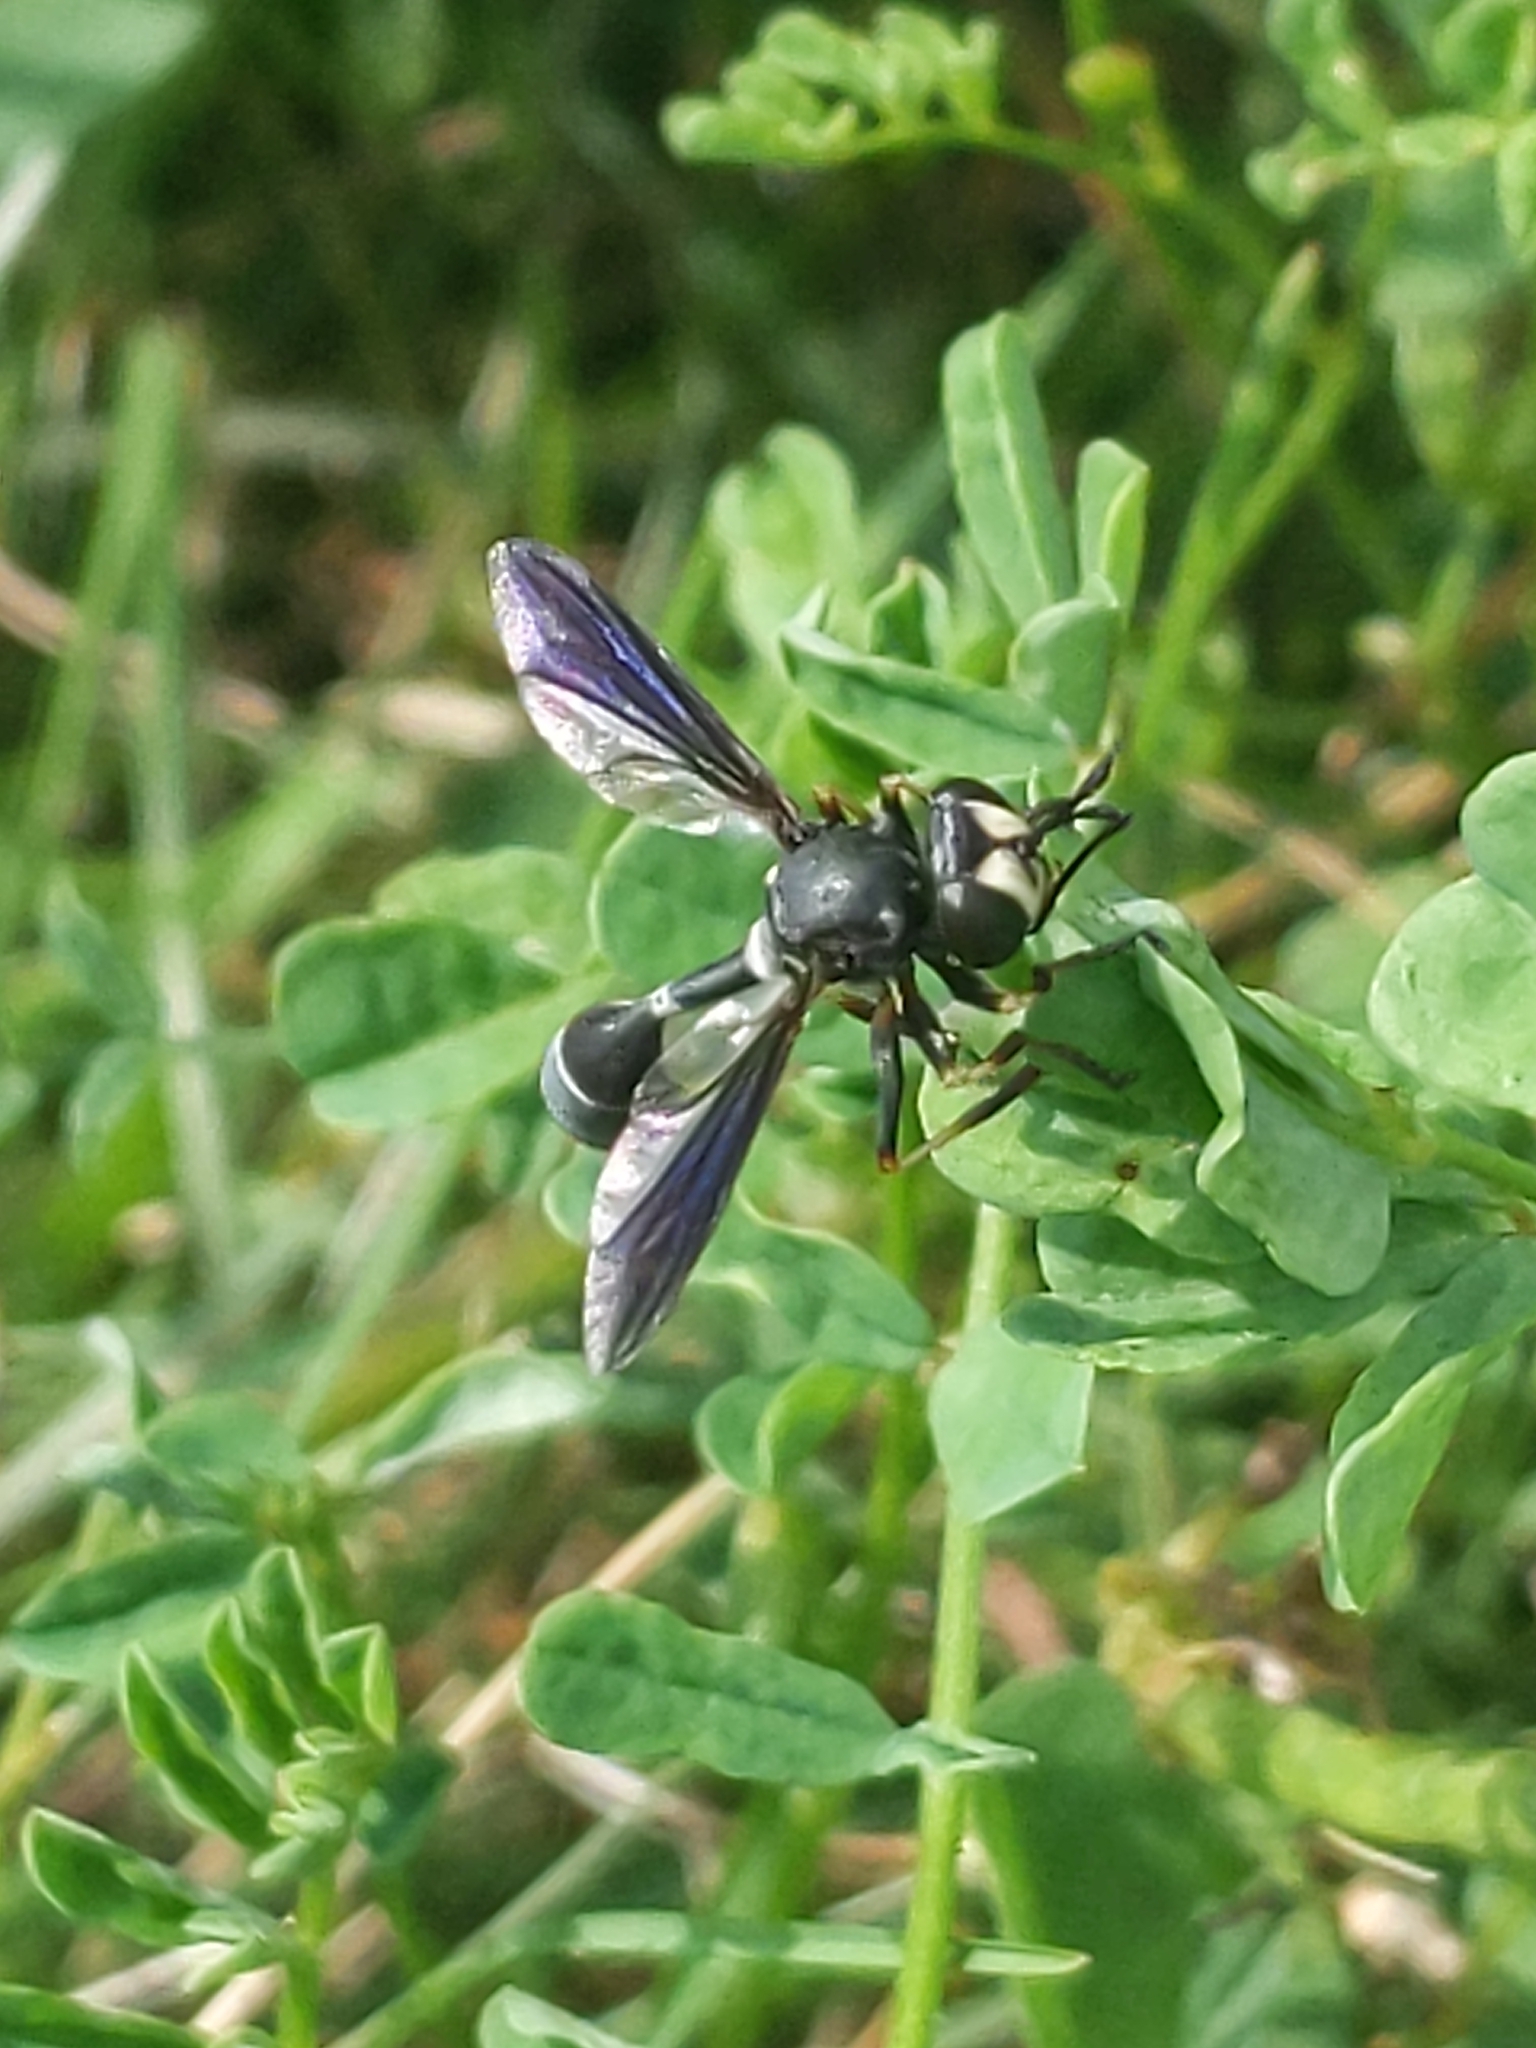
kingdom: Animalia
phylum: Arthropoda
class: Insecta
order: Diptera
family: Conopidae
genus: Physocephala
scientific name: Physocephala tibialis
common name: Common eastern physocephala
